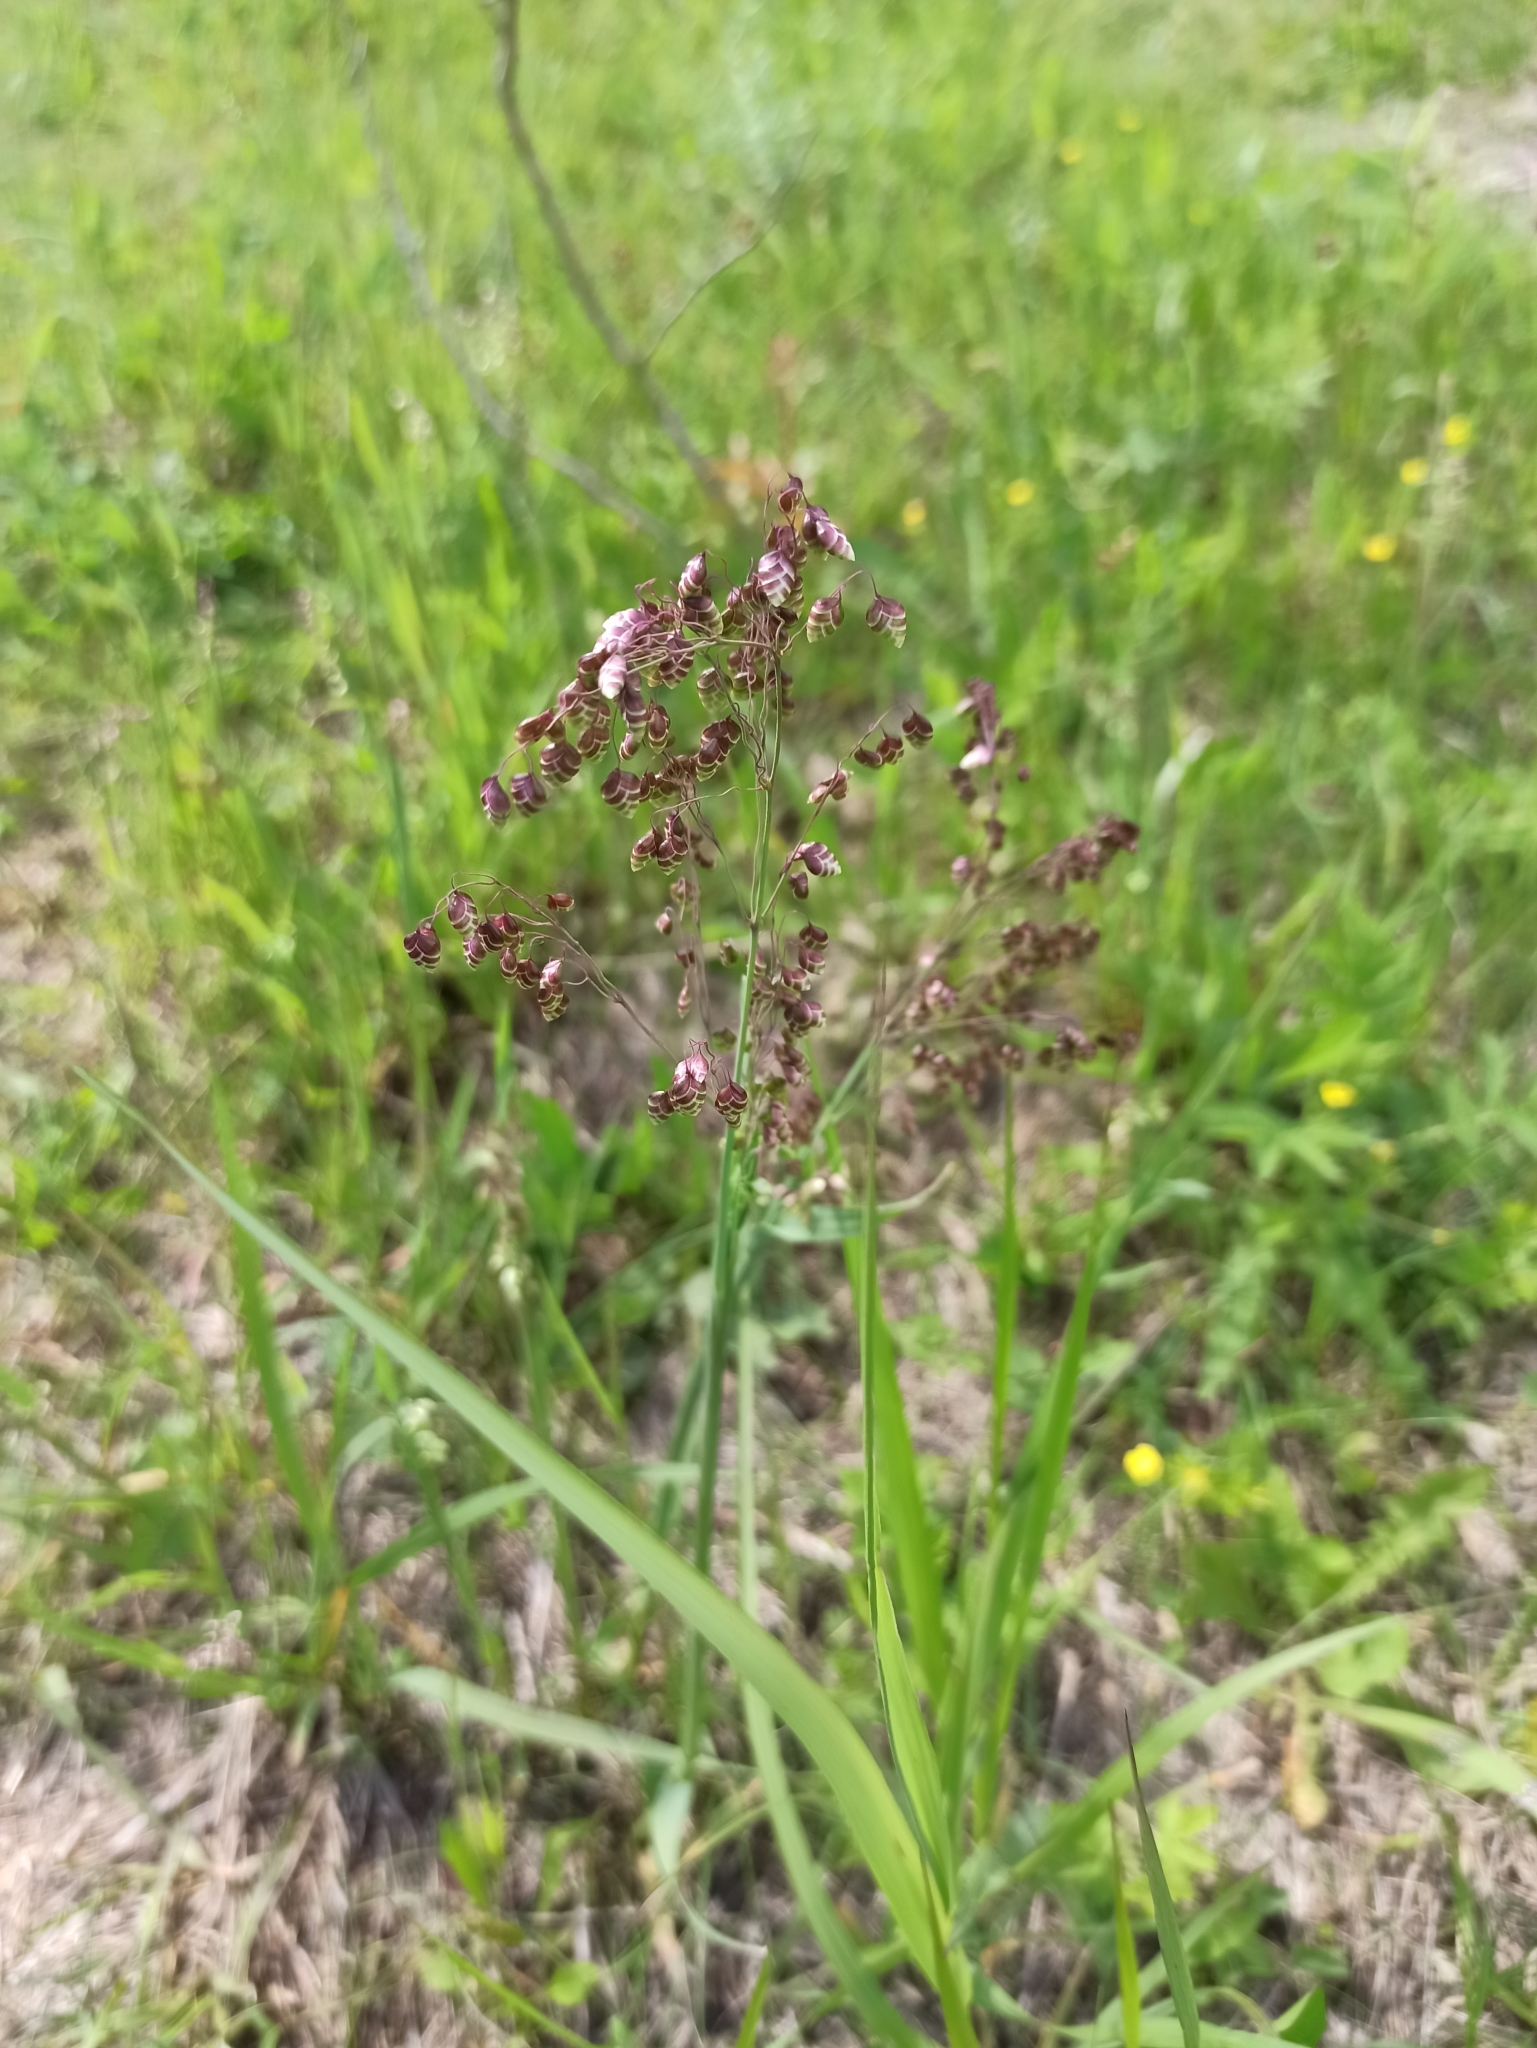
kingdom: Plantae
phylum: Tracheophyta
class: Liliopsida
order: Poales
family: Poaceae
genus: Briza
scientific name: Briza media
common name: Quaking grass
